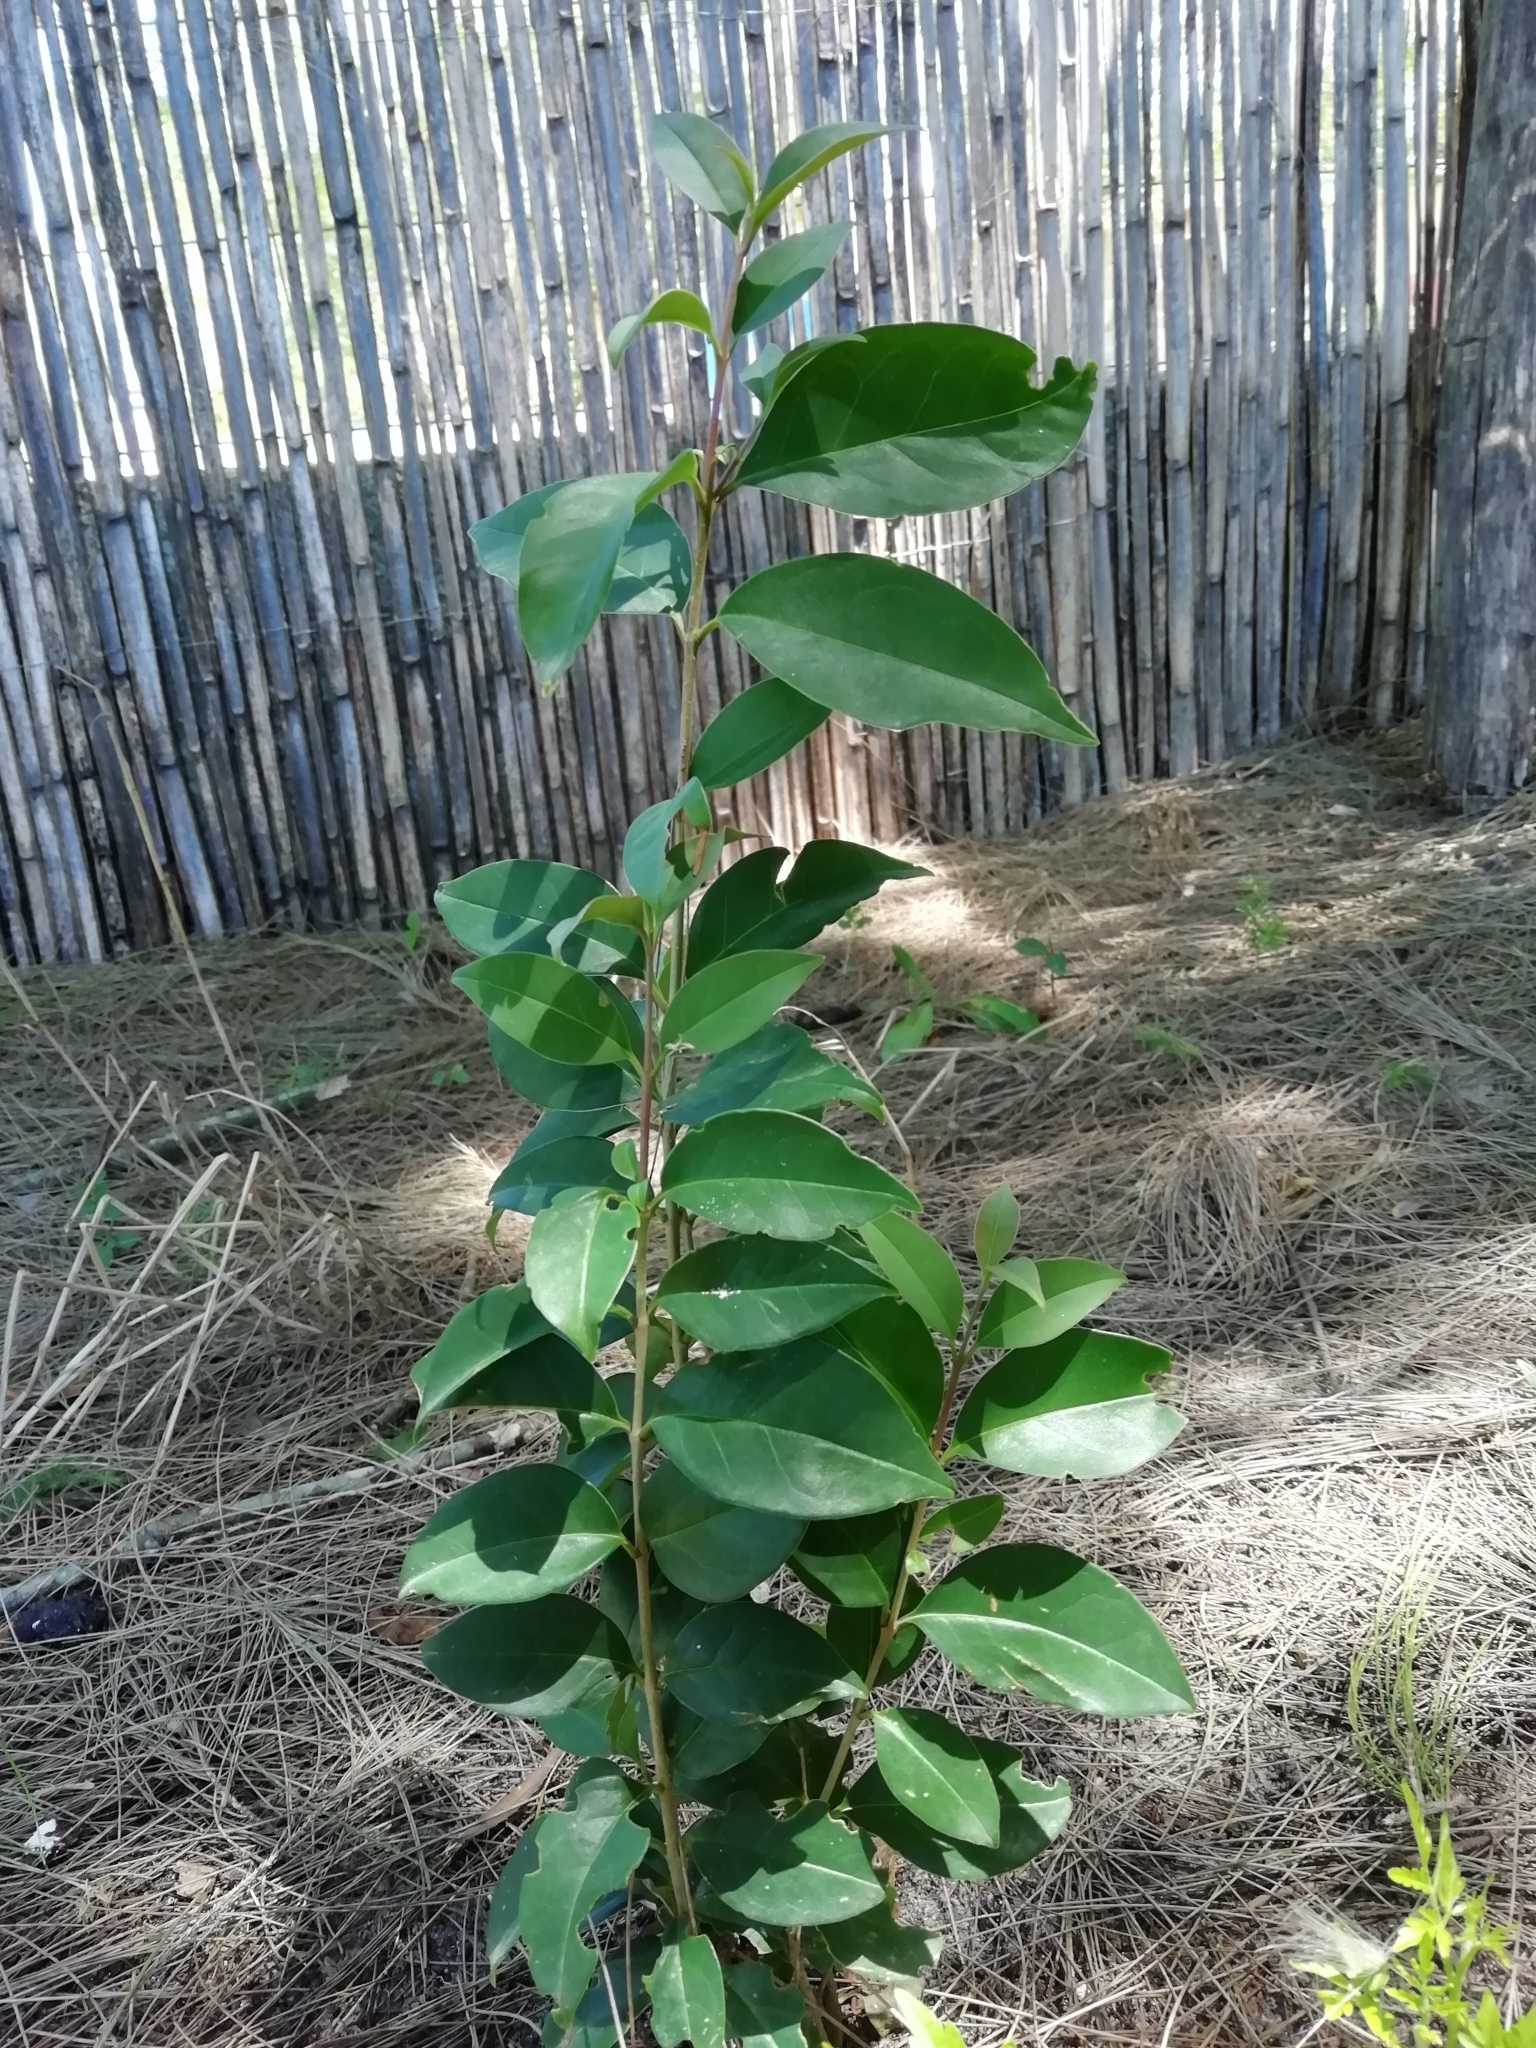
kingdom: Plantae
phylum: Tracheophyta
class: Magnoliopsida
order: Lamiales
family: Oleaceae
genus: Ligustrum
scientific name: Ligustrum lucidum
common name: Glossy privet
